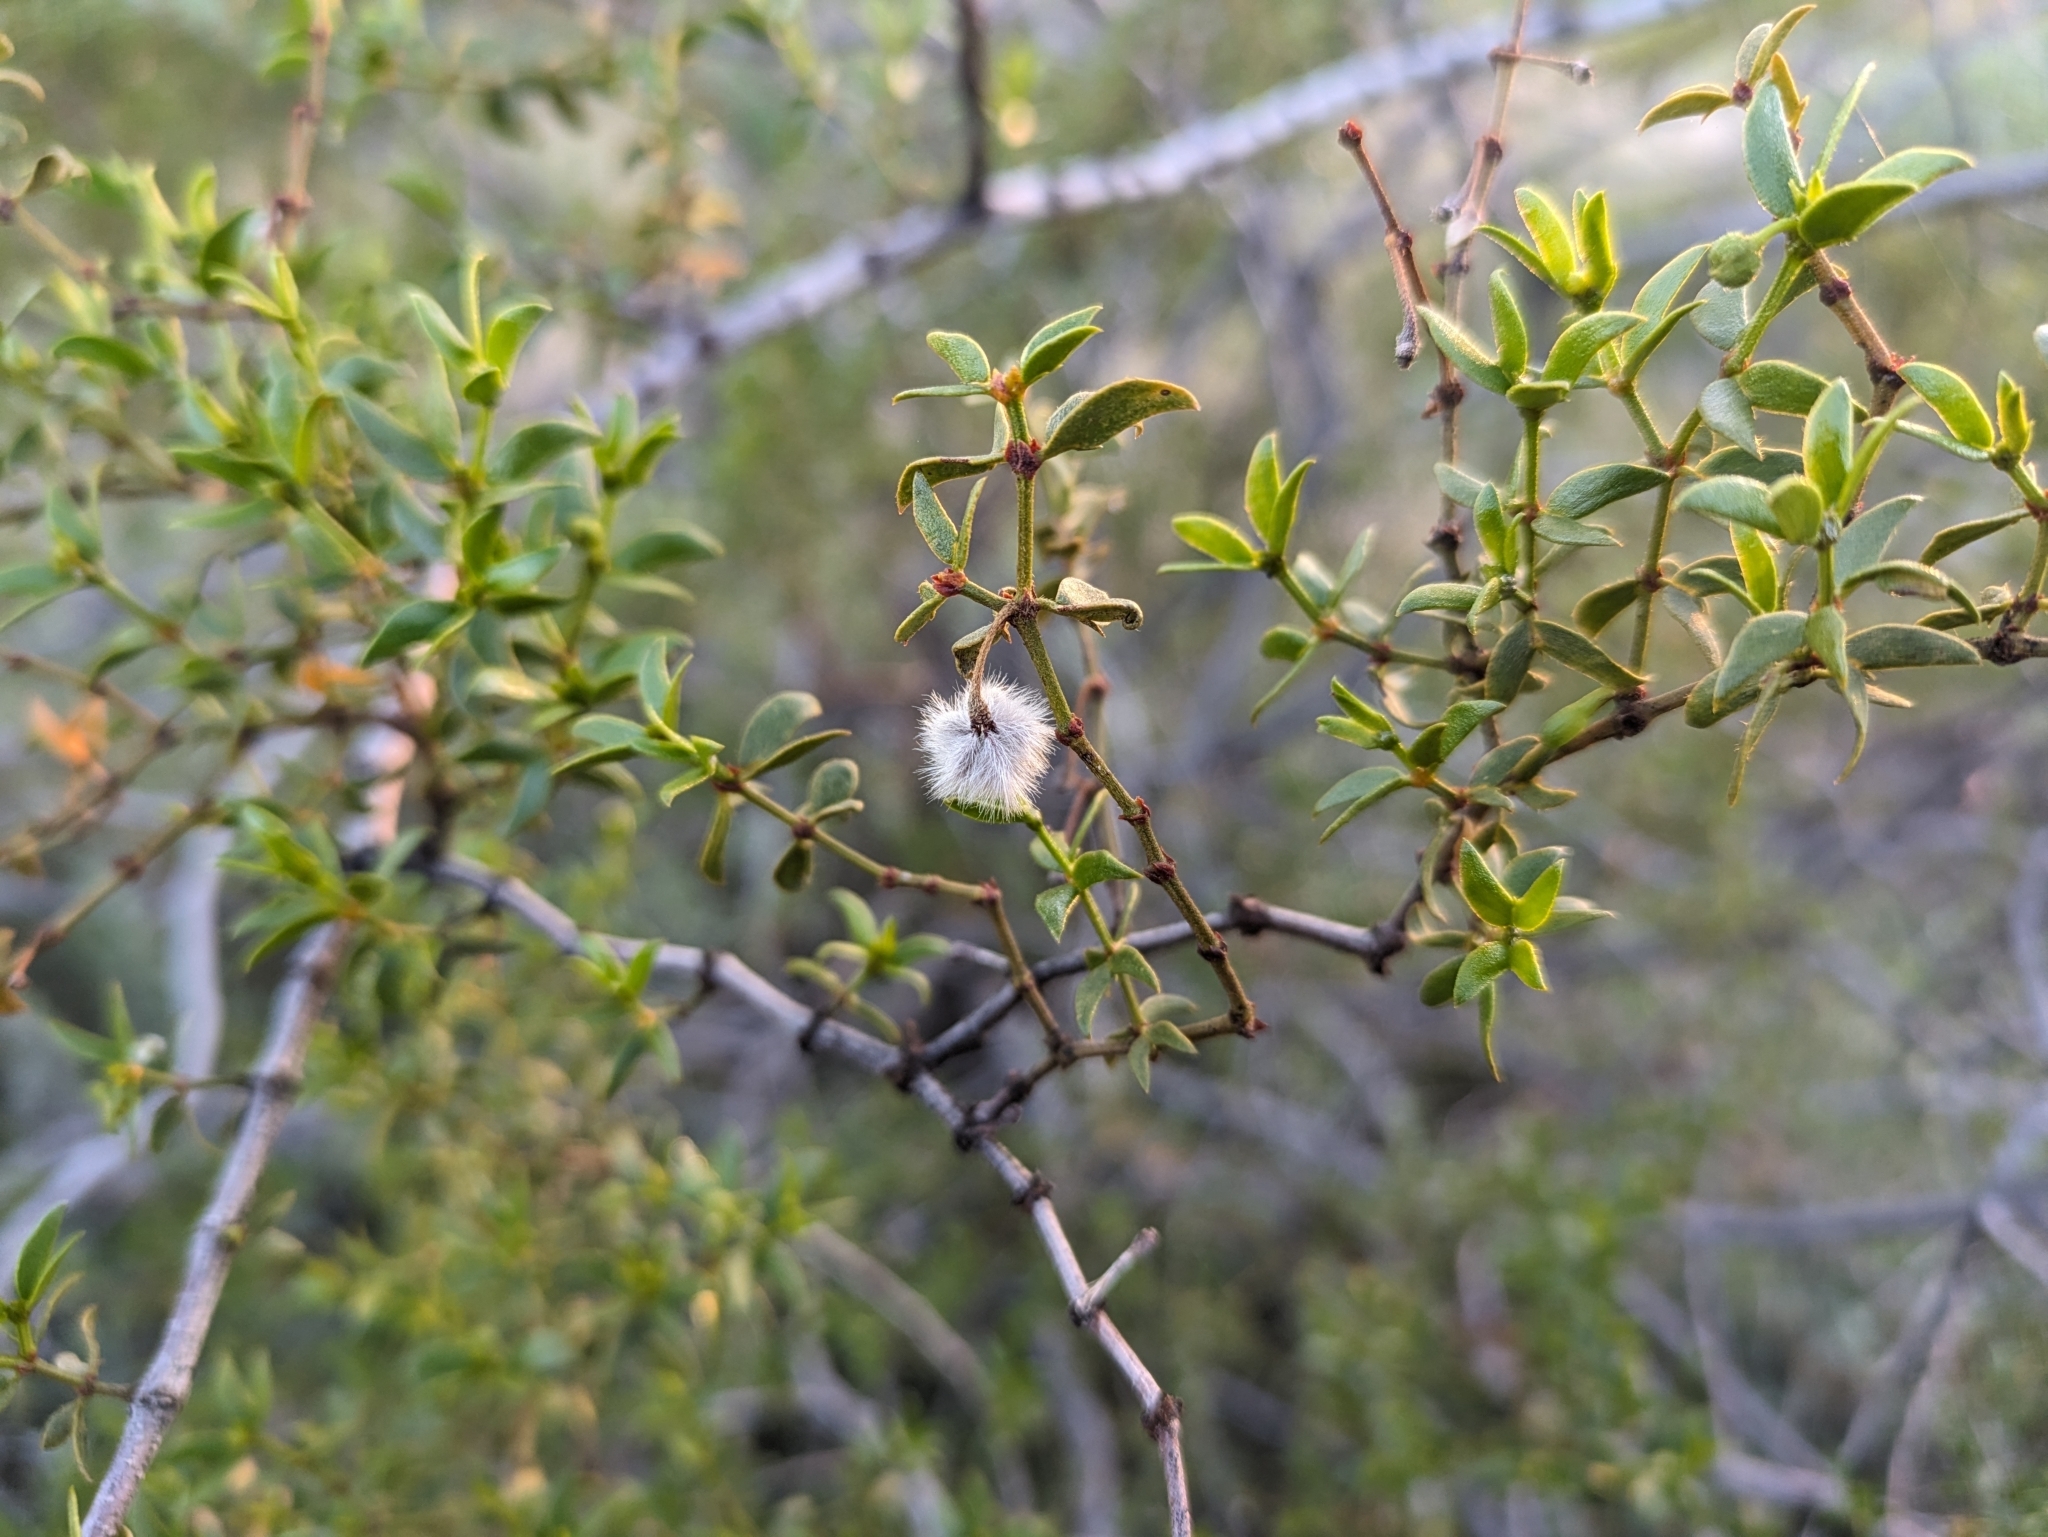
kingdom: Plantae
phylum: Tracheophyta
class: Magnoliopsida
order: Zygophyllales
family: Zygophyllaceae
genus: Larrea
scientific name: Larrea tridentata
